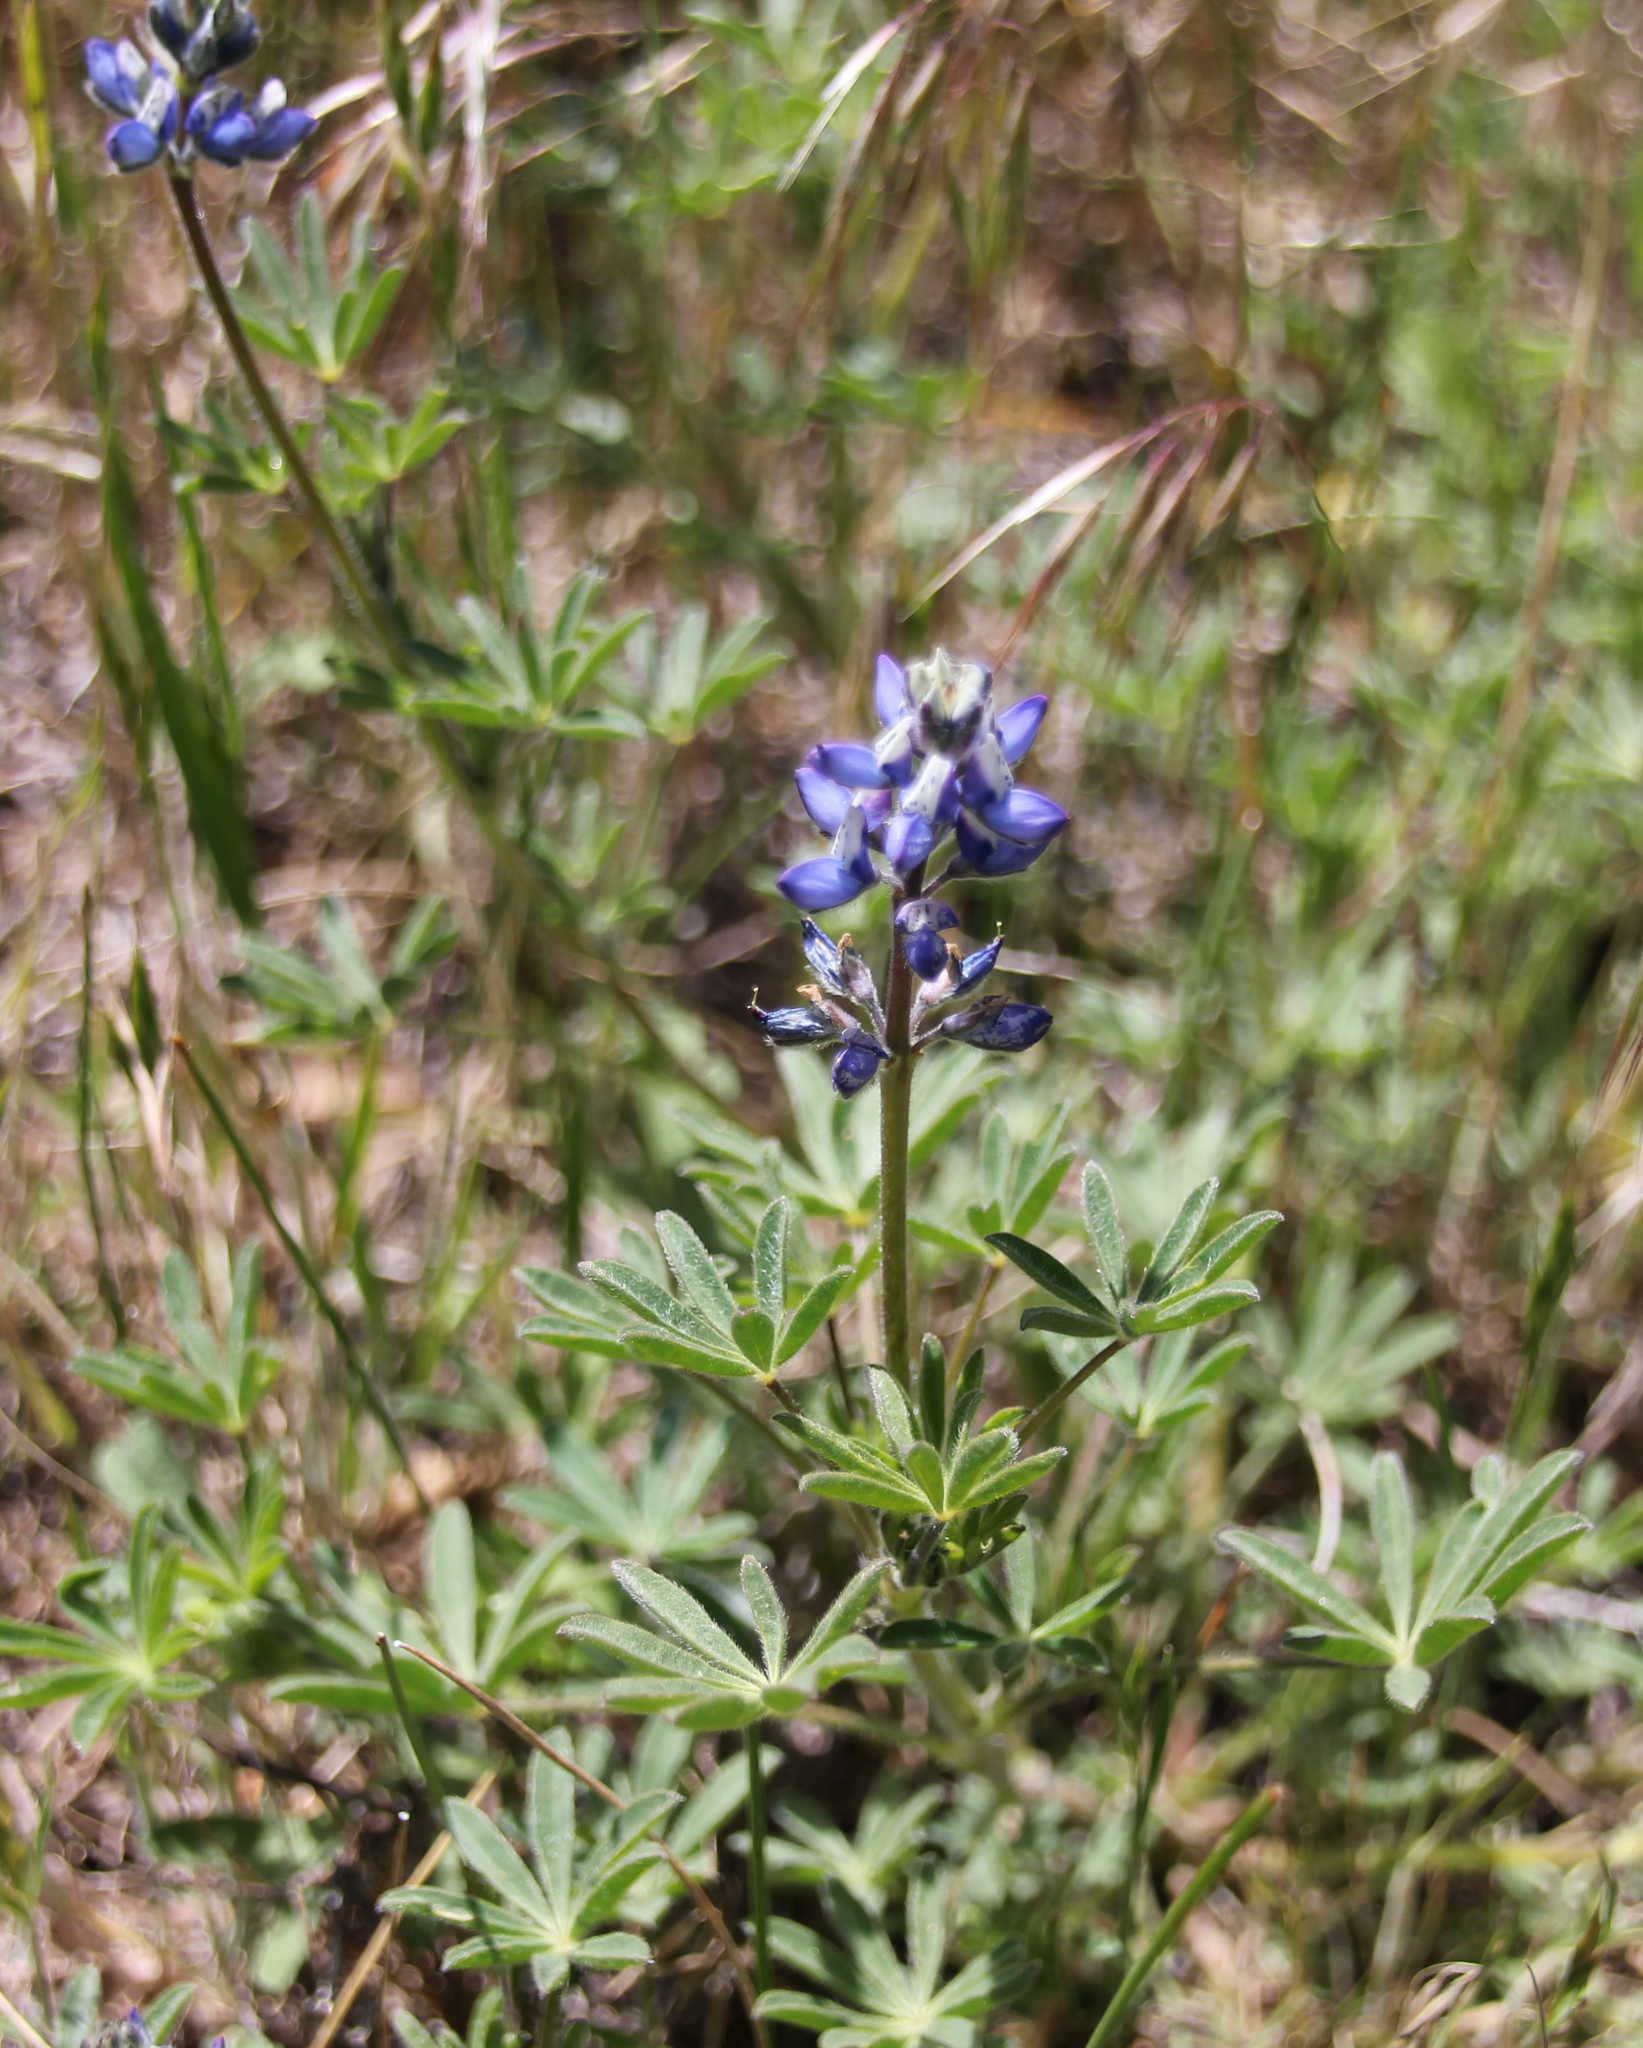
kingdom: Plantae
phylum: Tracheophyta
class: Magnoliopsida
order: Fabales
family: Fabaceae
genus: Lupinus
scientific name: Lupinus bicolor
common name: Miniature lupine
